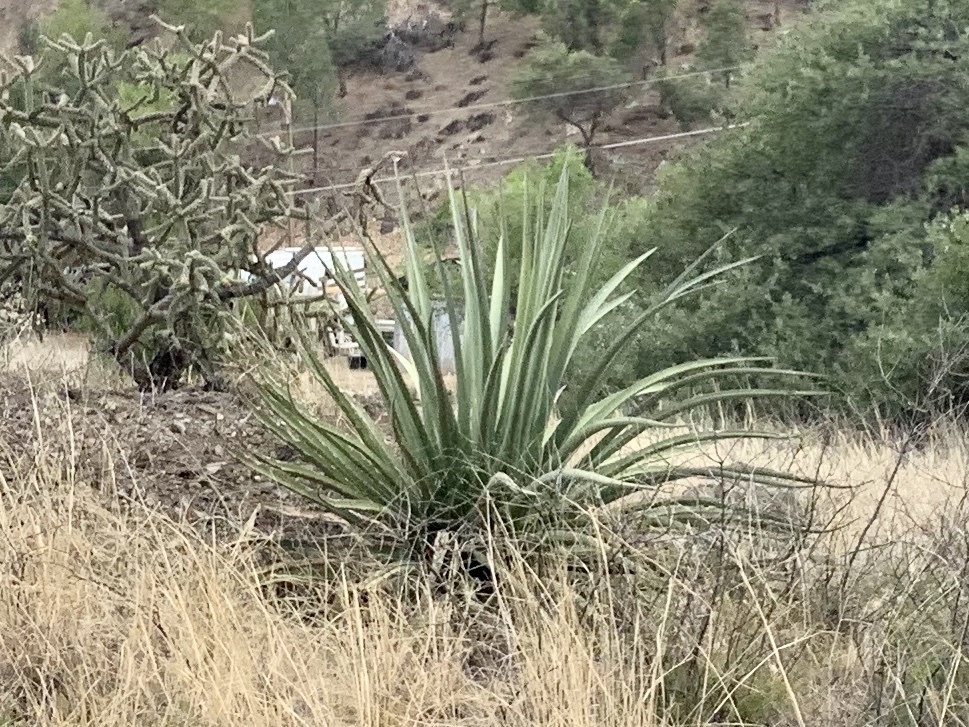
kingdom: Plantae
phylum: Tracheophyta
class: Liliopsida
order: Asparagales
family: Asparagaceae
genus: Agave
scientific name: Agave palmeri
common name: Palmer agave
